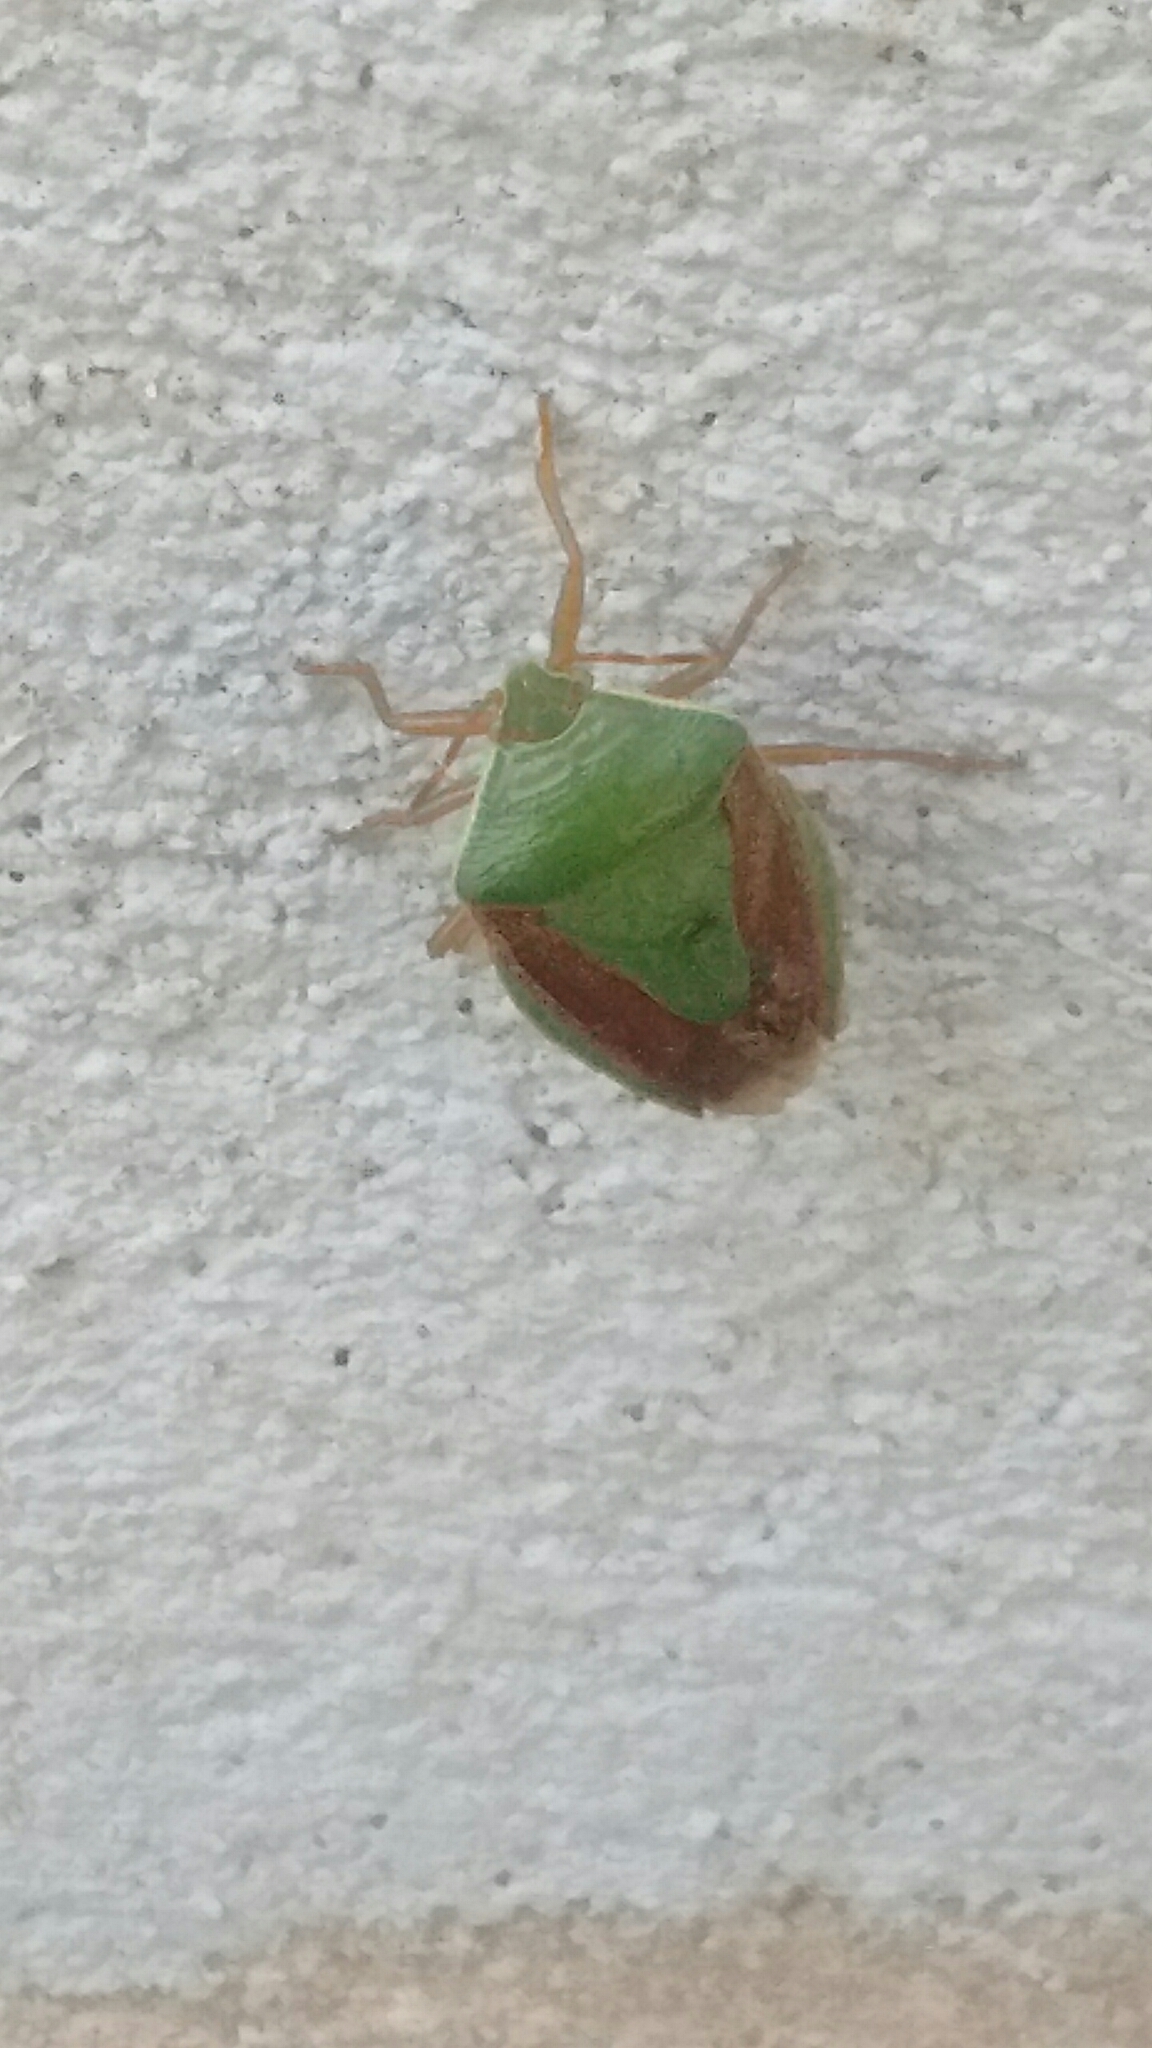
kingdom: Animalia
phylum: Arthropoda
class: Insecta
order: Hemiptera
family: Pentatomidae
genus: Edessa
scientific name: Edessa meditabunda
